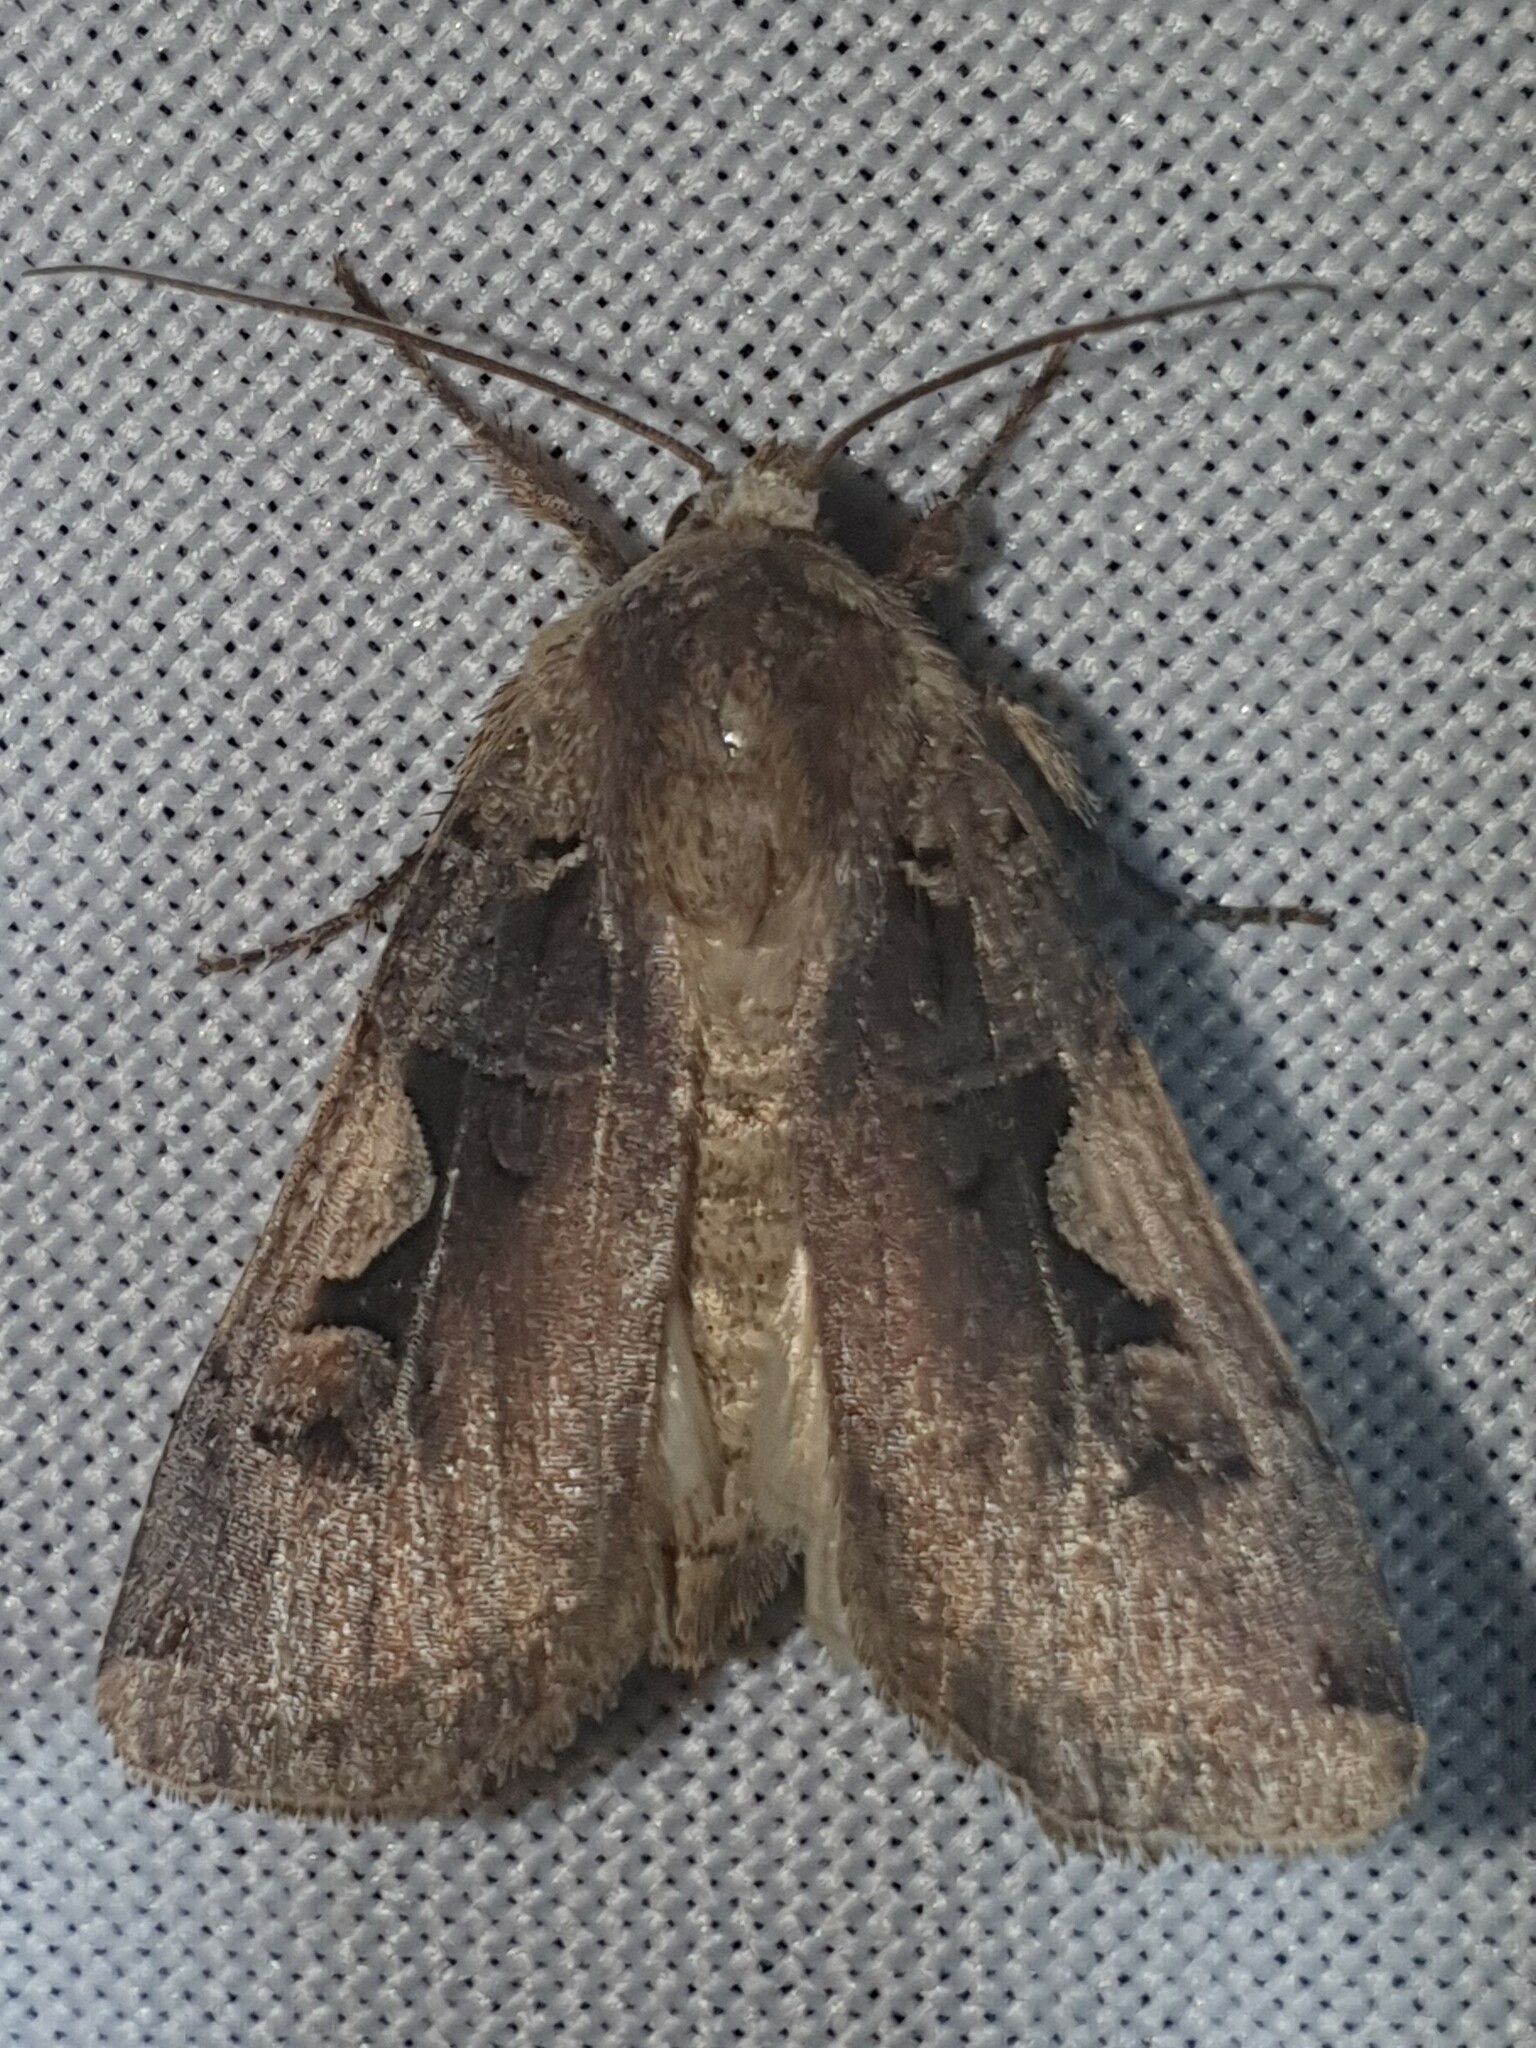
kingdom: Animalia
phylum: Arthropoda
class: Insecta
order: Lepidoptera
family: Noctuidae
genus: Xestia
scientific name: Xestia c-nigrum
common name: Setaceous hebrew character
